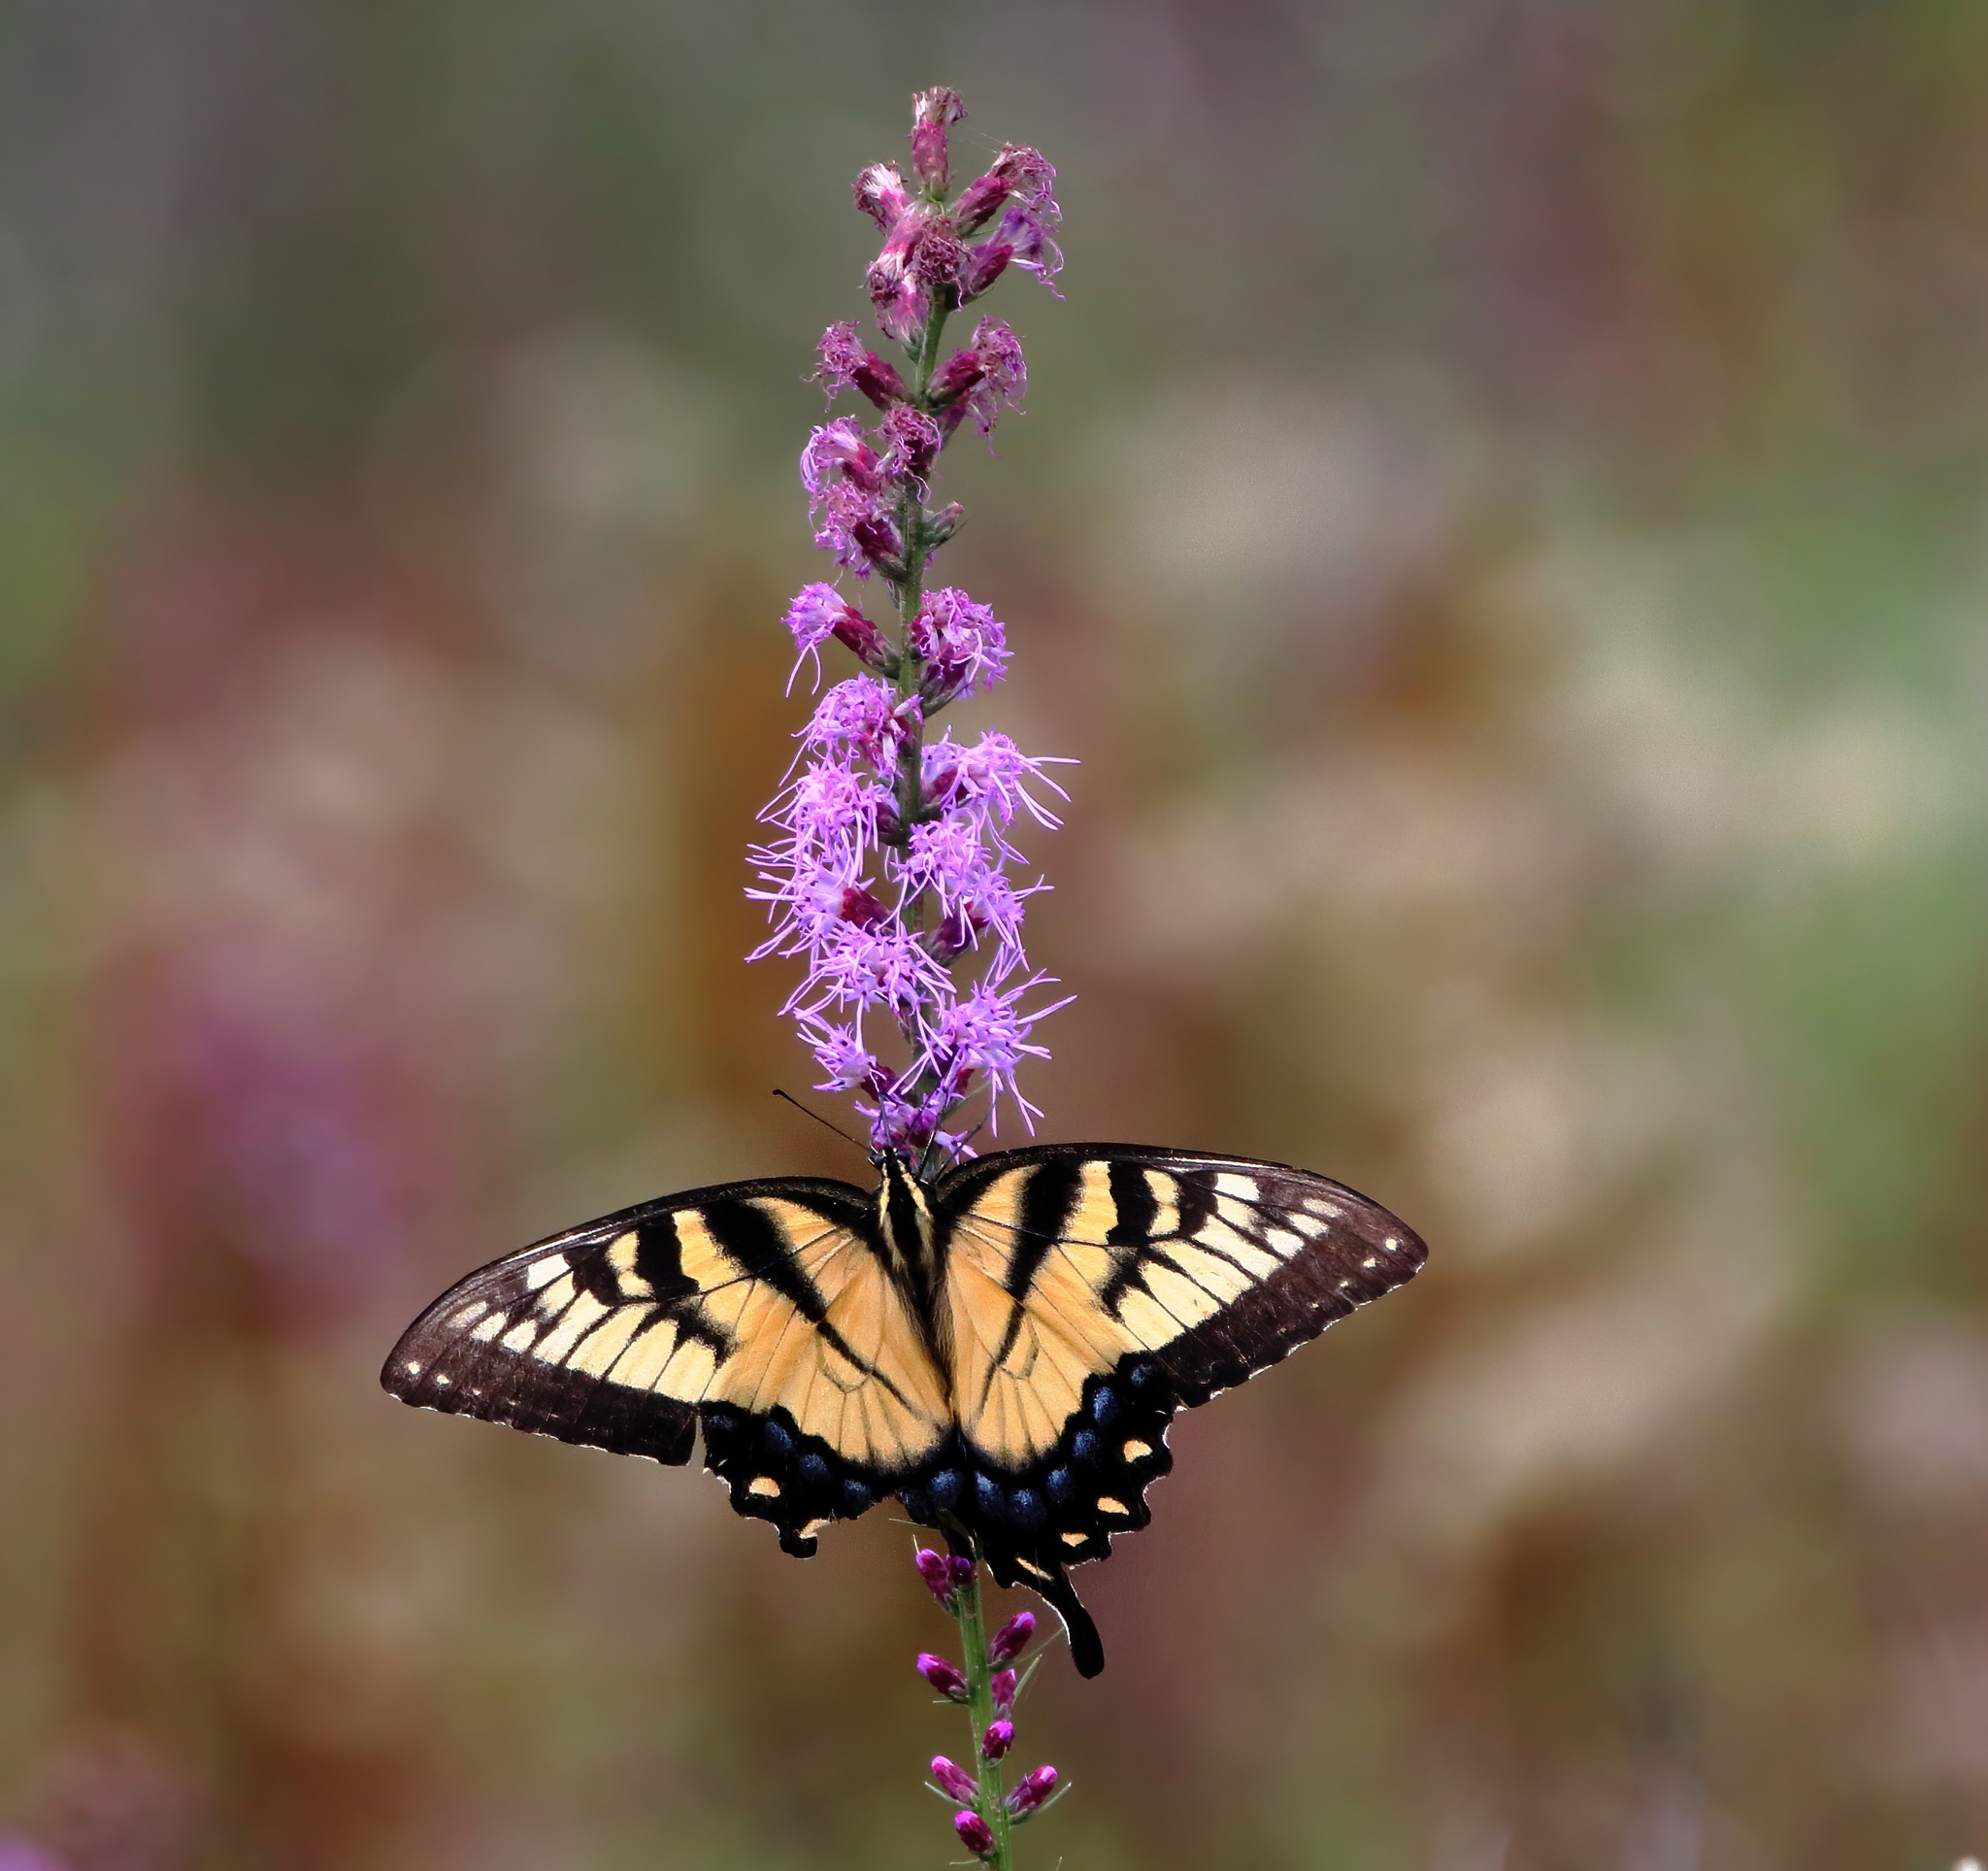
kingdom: Animalia
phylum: Arthropoda
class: Insecta
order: Lepidoptera
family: Papilionidae
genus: Papilio
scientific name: Papilio glaucus
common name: Tiger swallowtail
